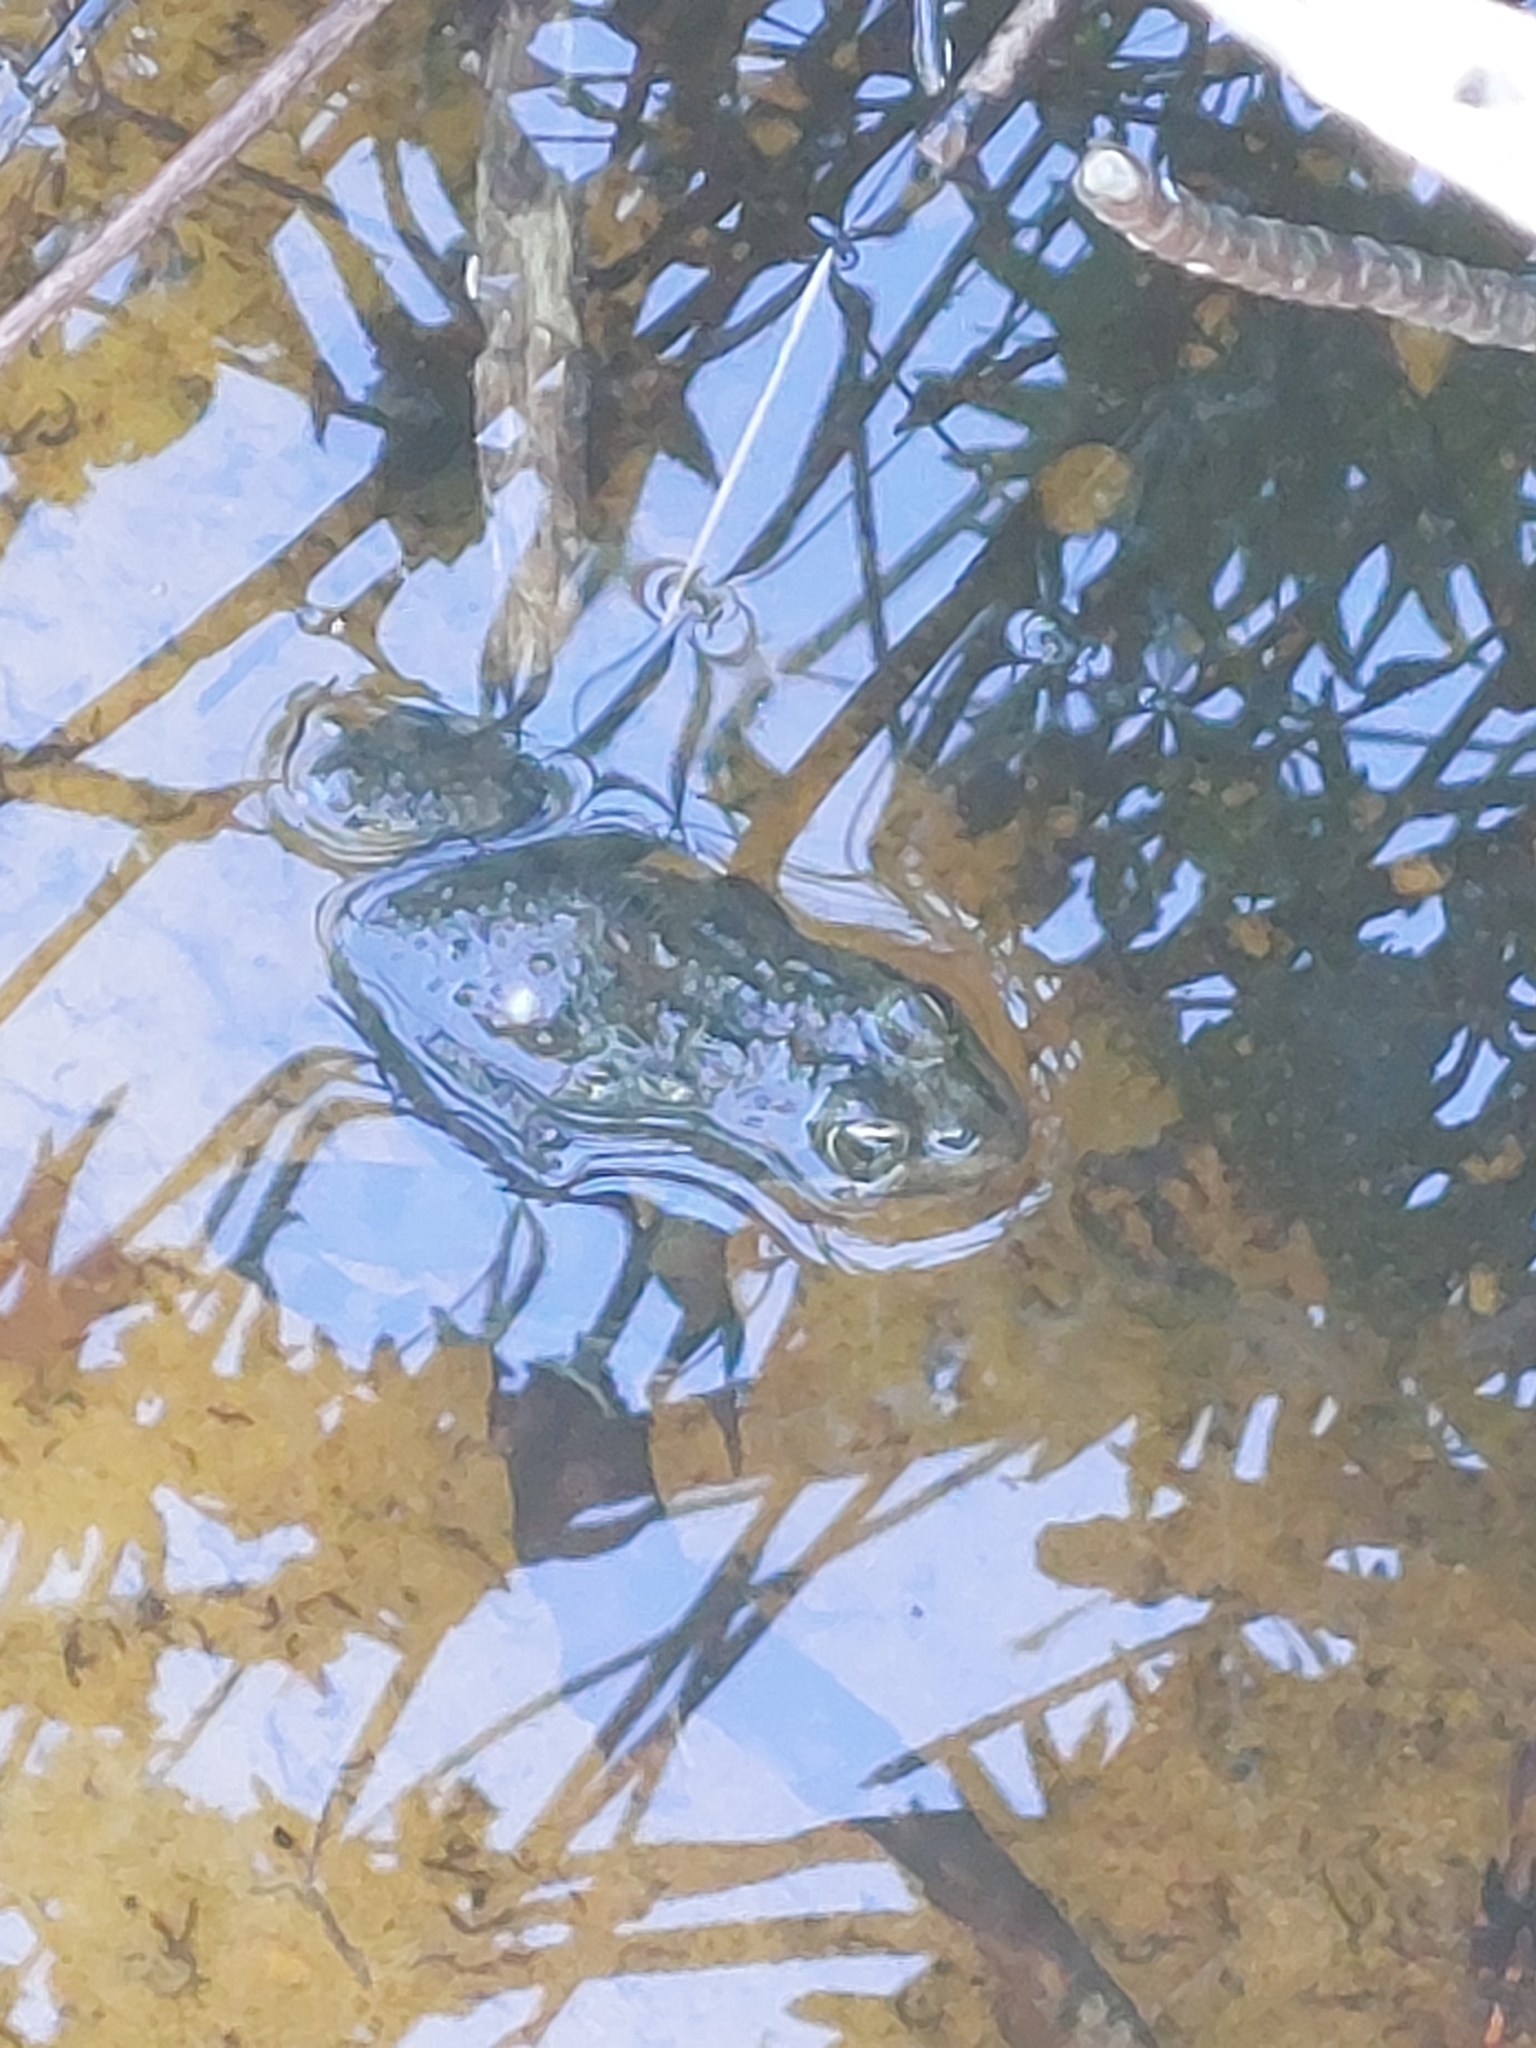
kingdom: Animalia
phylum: Chordata
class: Amphibia
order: Anura
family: Pyxicephalidae
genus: Amietia
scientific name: Amietia fuscigula
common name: Cape rana
